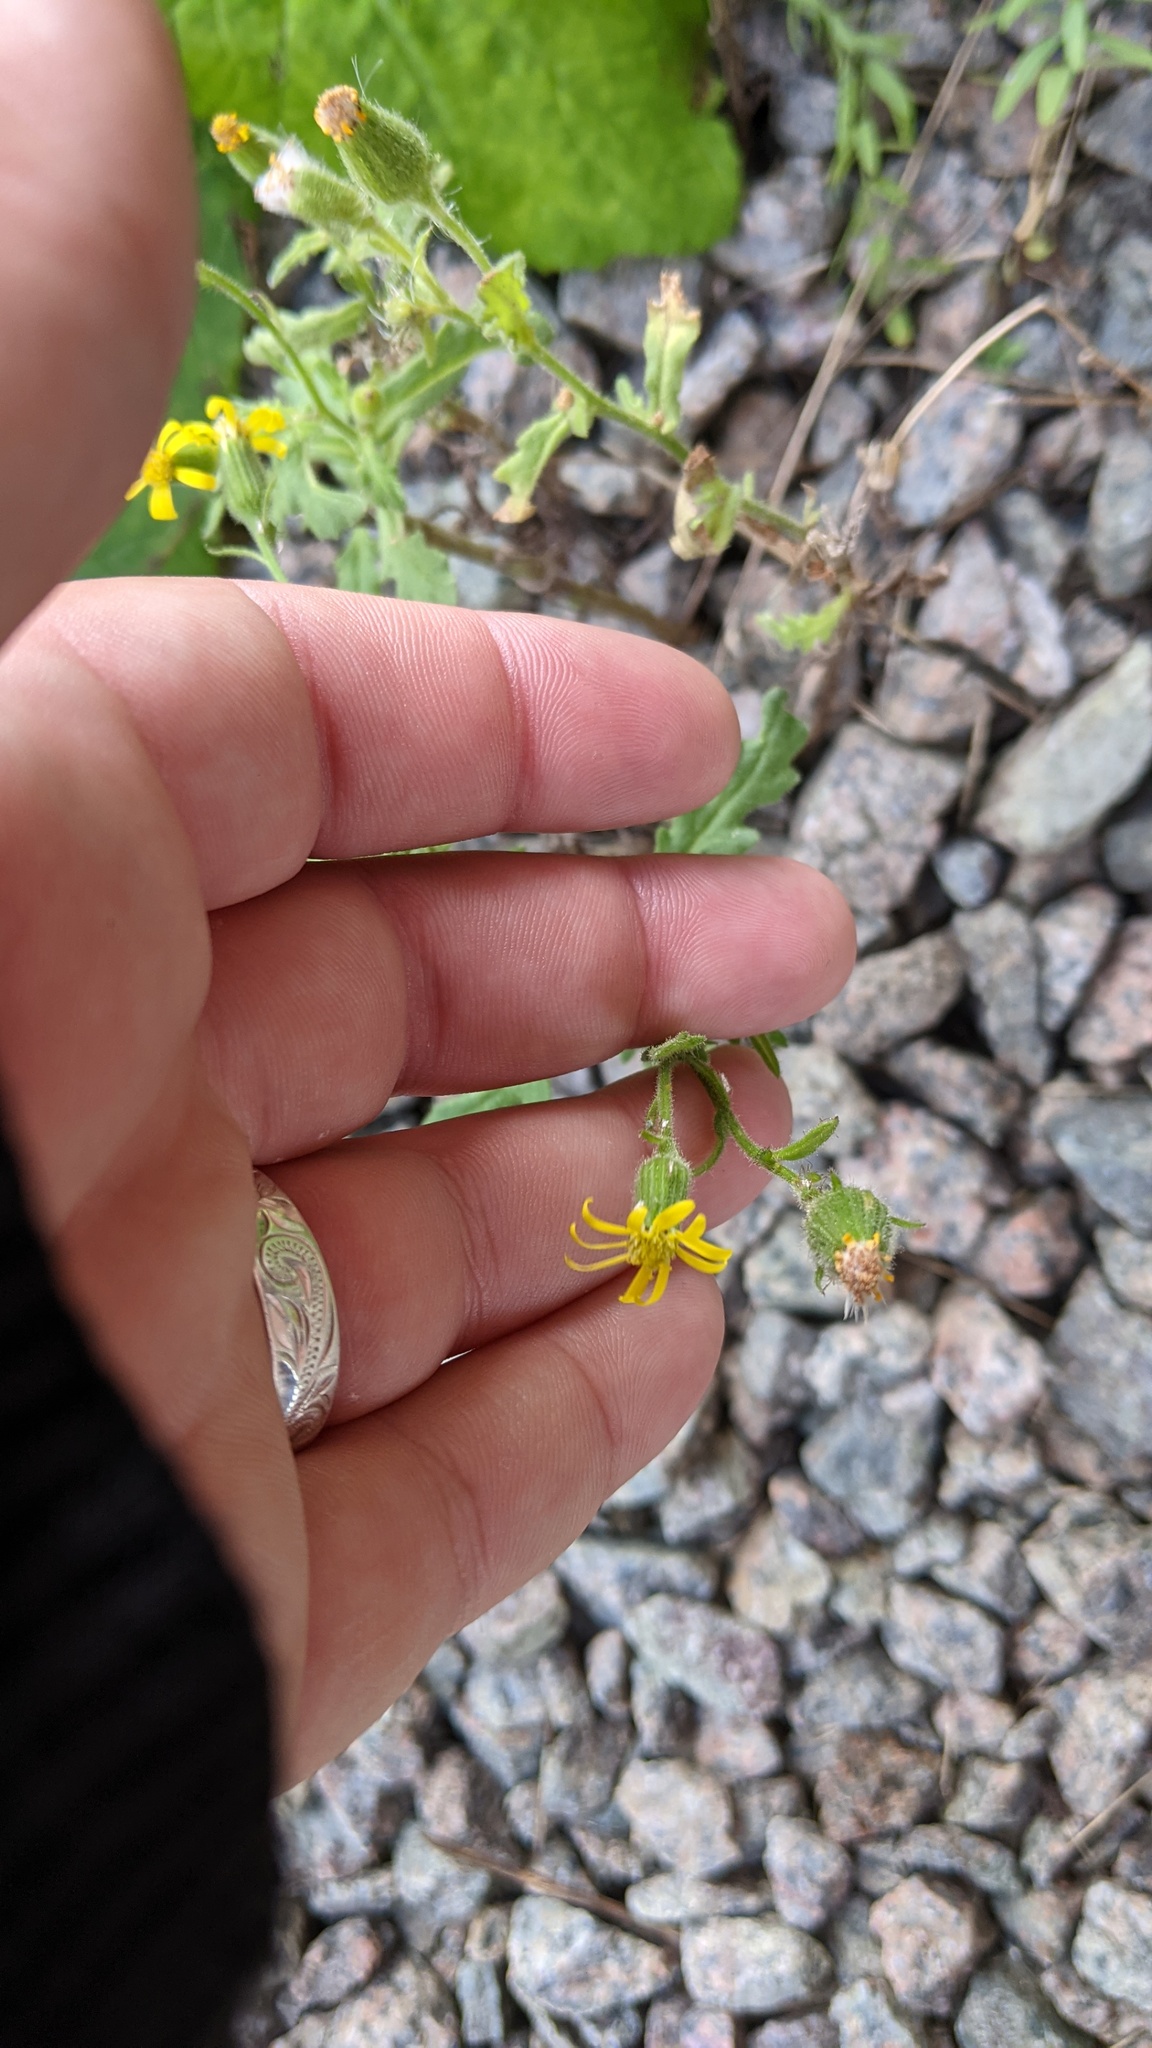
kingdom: Plantae
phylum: Tracheophyta
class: Magnoliopsida
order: Asterales
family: Asteraceae
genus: Senecio
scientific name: Senecio viscosus
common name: Sticky groundsel
